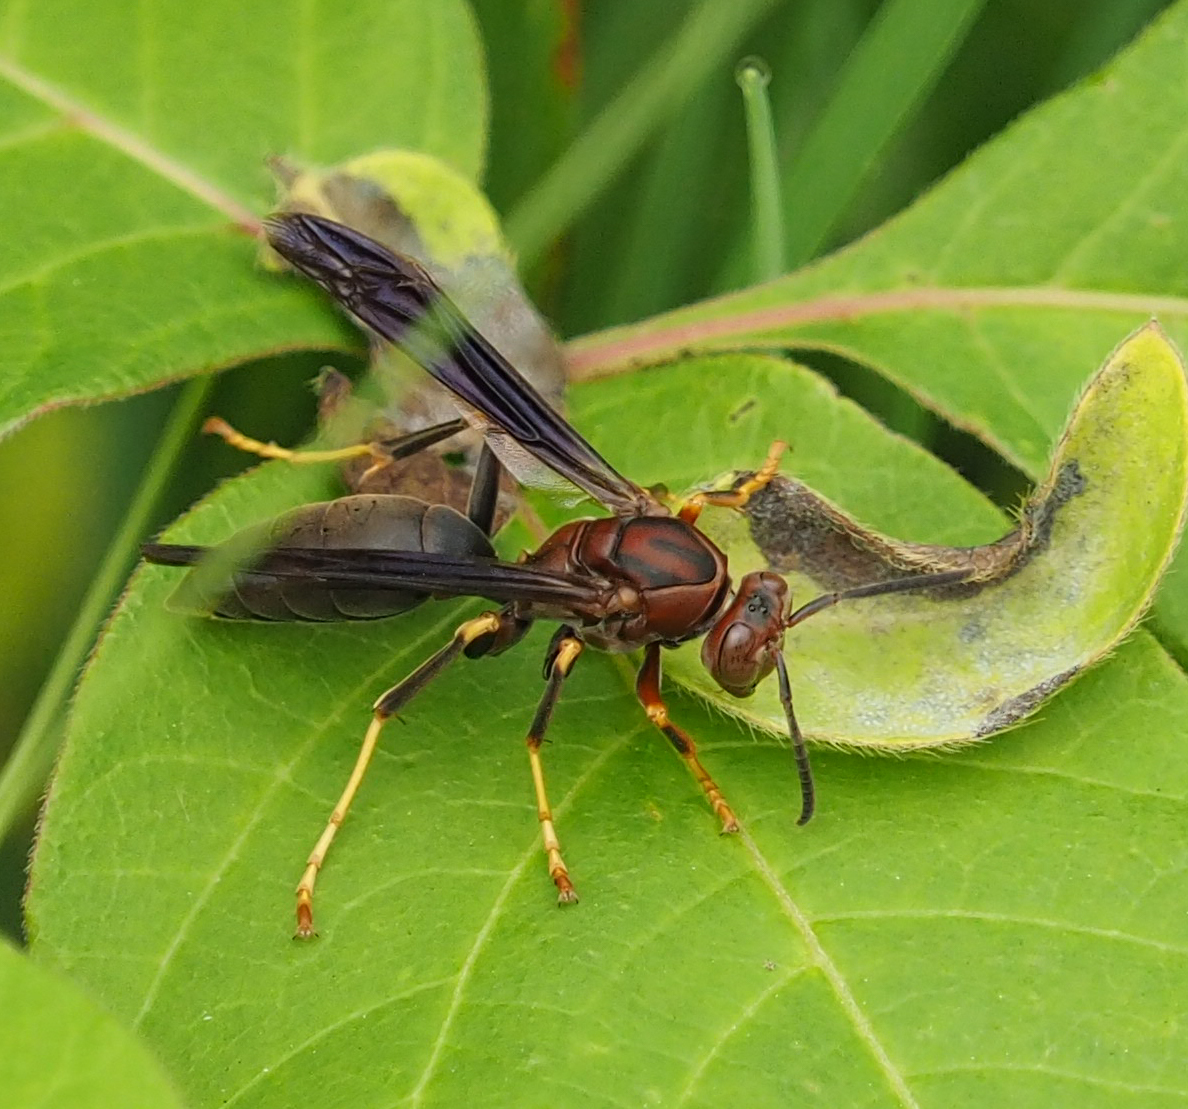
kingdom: Animalia
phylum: Arthropoda
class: Insecta
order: Hymenoptera
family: Eumenidae
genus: Polistes
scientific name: Polistes metricus
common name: Metric paper wasp
